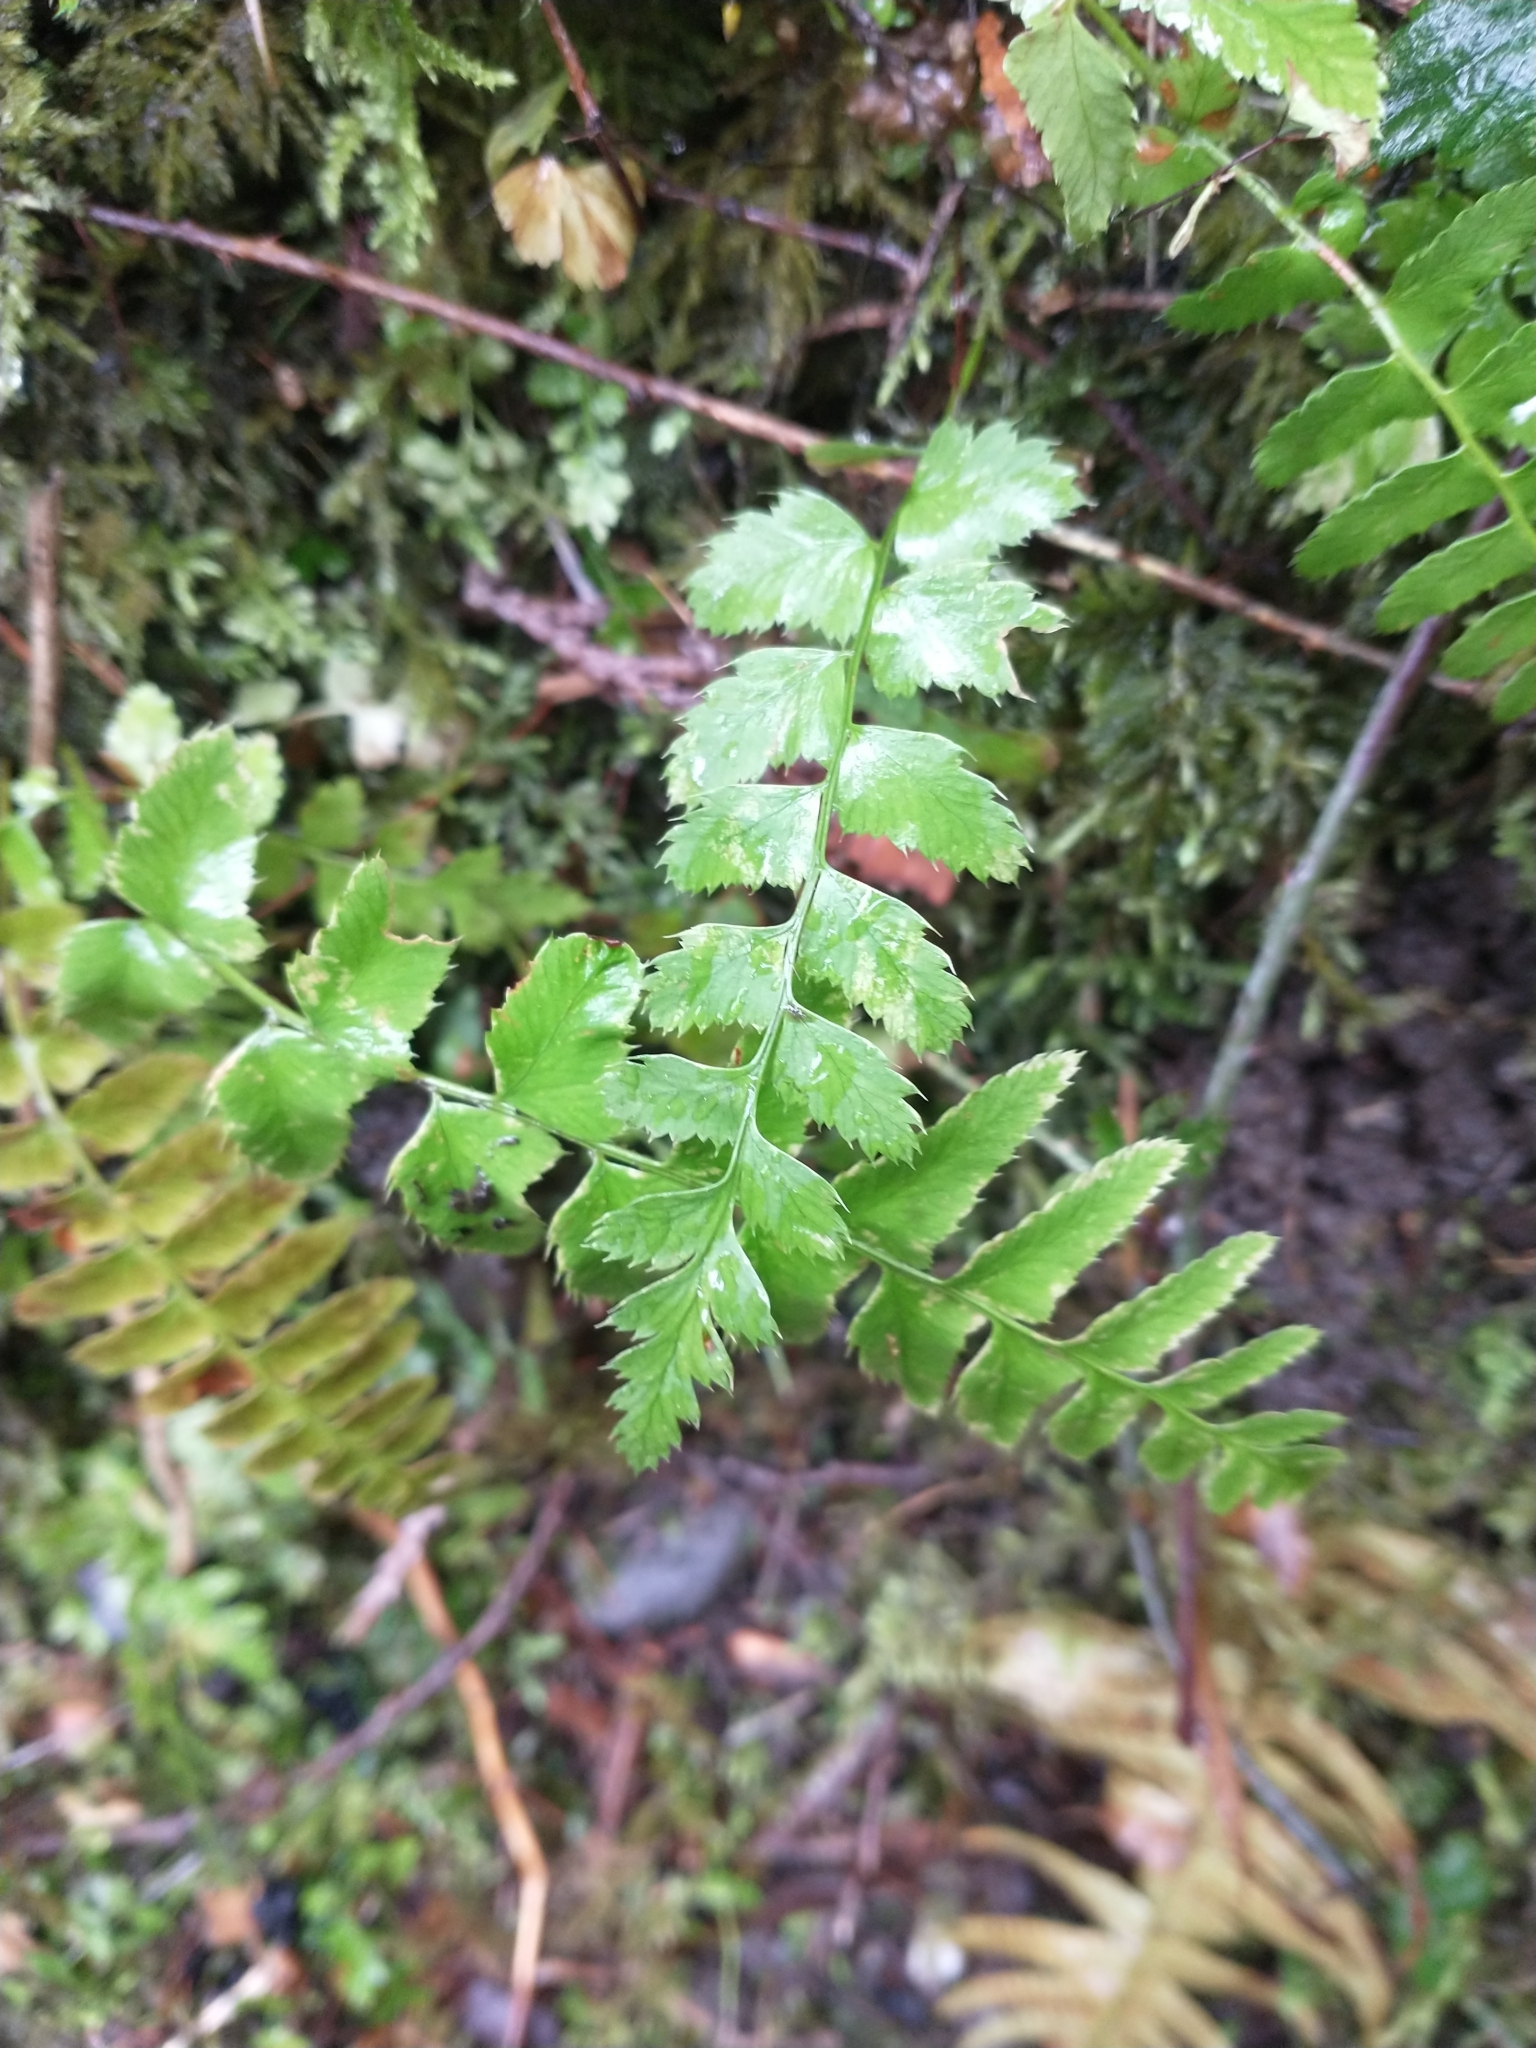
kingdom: Plantae
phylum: Tracheophyta
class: Polypodiopsida
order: Polypodiales
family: Dryopteridaceae
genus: Polystichum
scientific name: Polystichum munitum
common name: Western sword-fern
